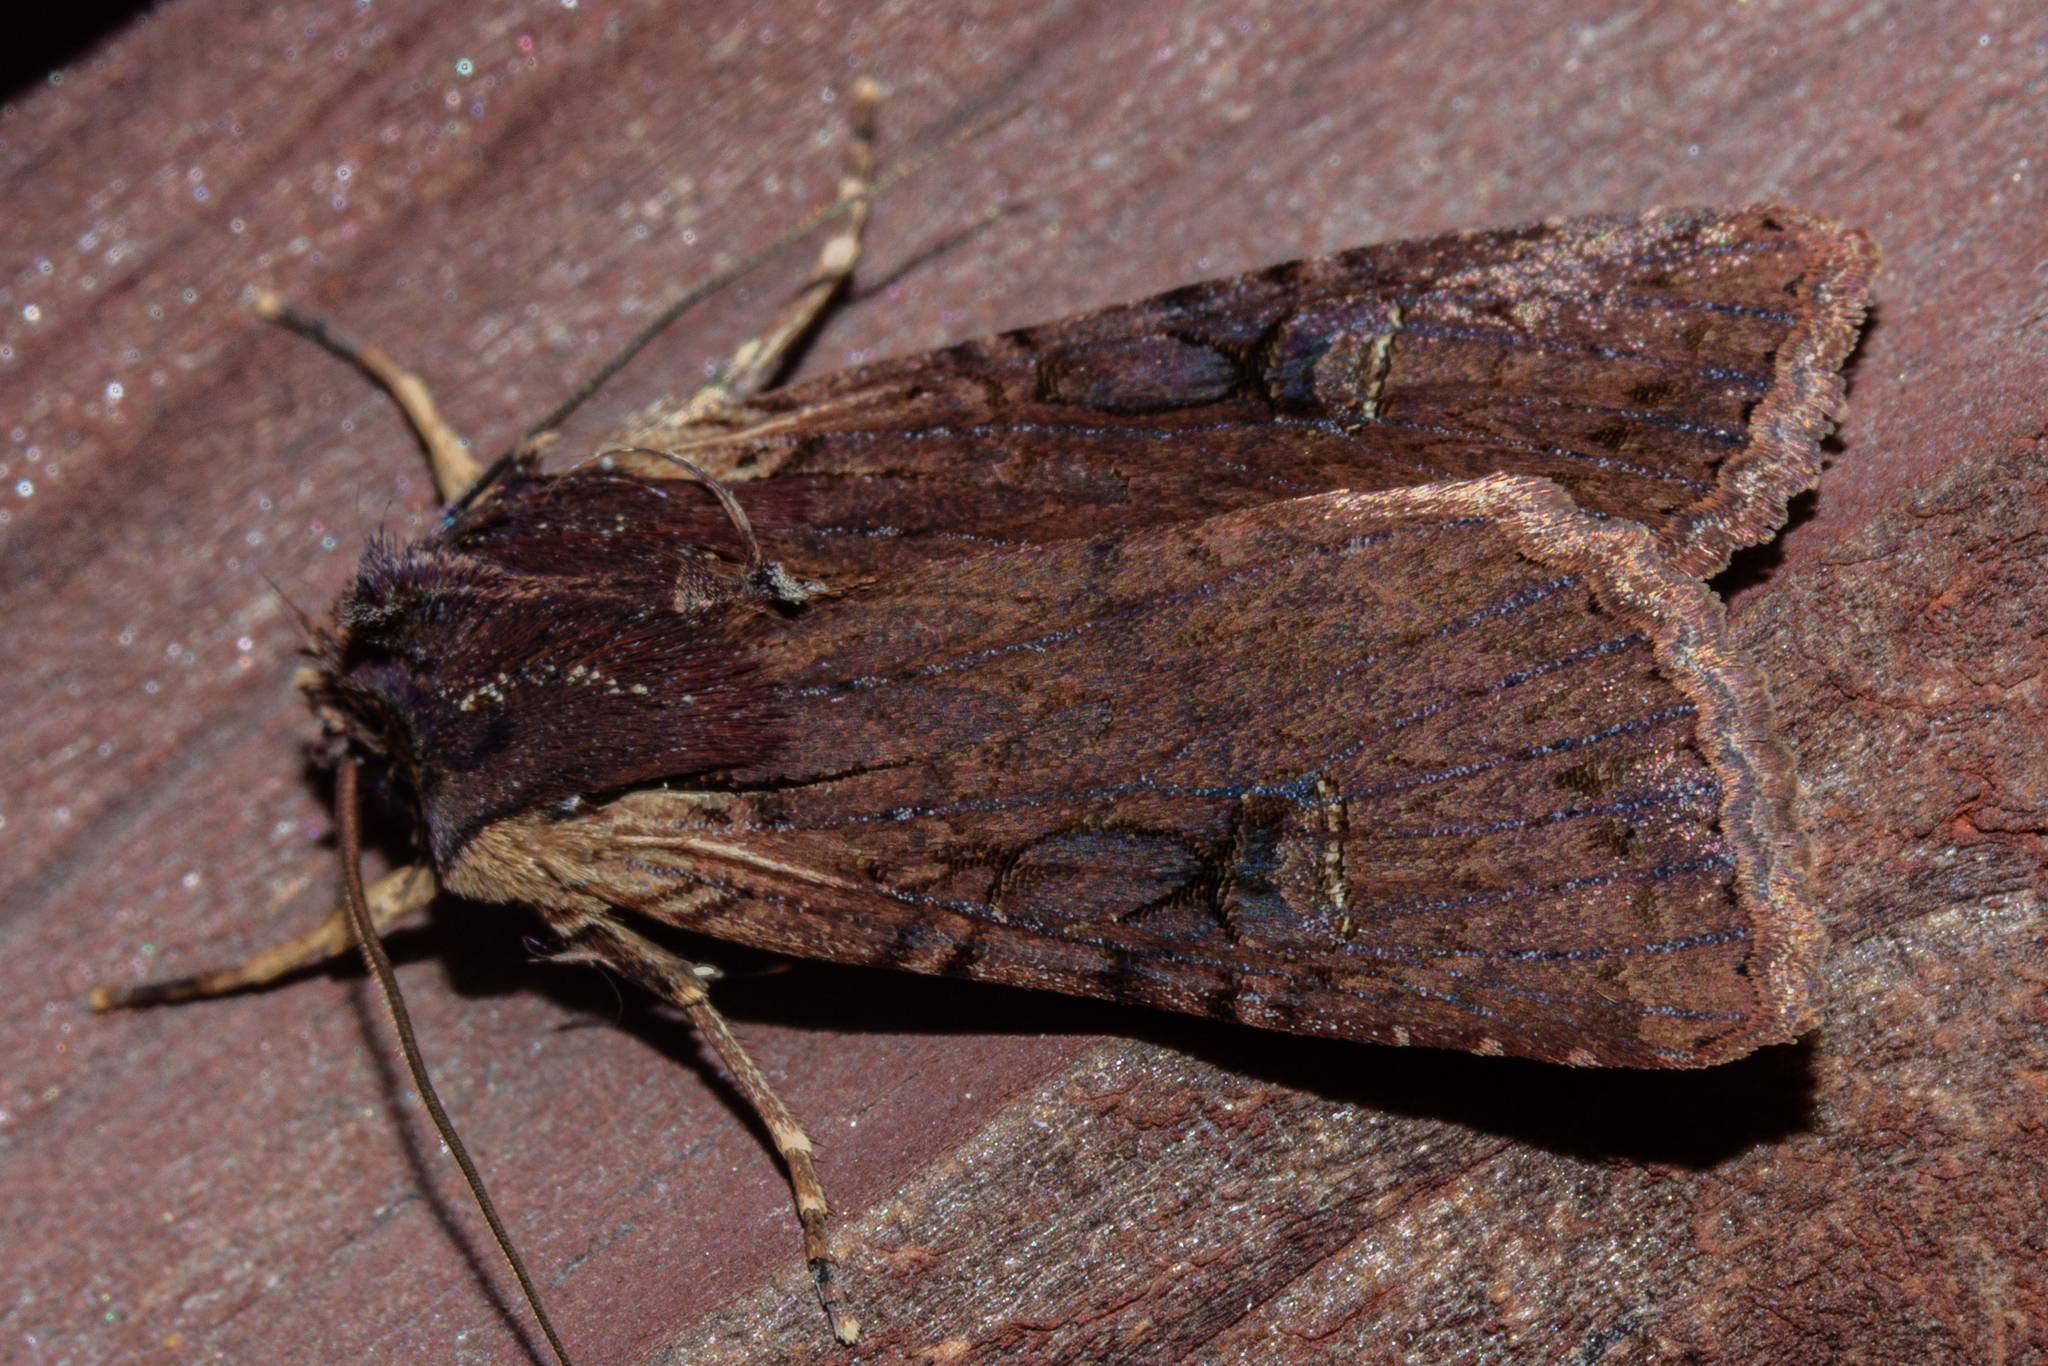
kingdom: Animalia
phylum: Arthropoda
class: Insecta
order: Lepidoptera
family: Noctuidae
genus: Ichneutica
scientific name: Ichneutica omoplaca
